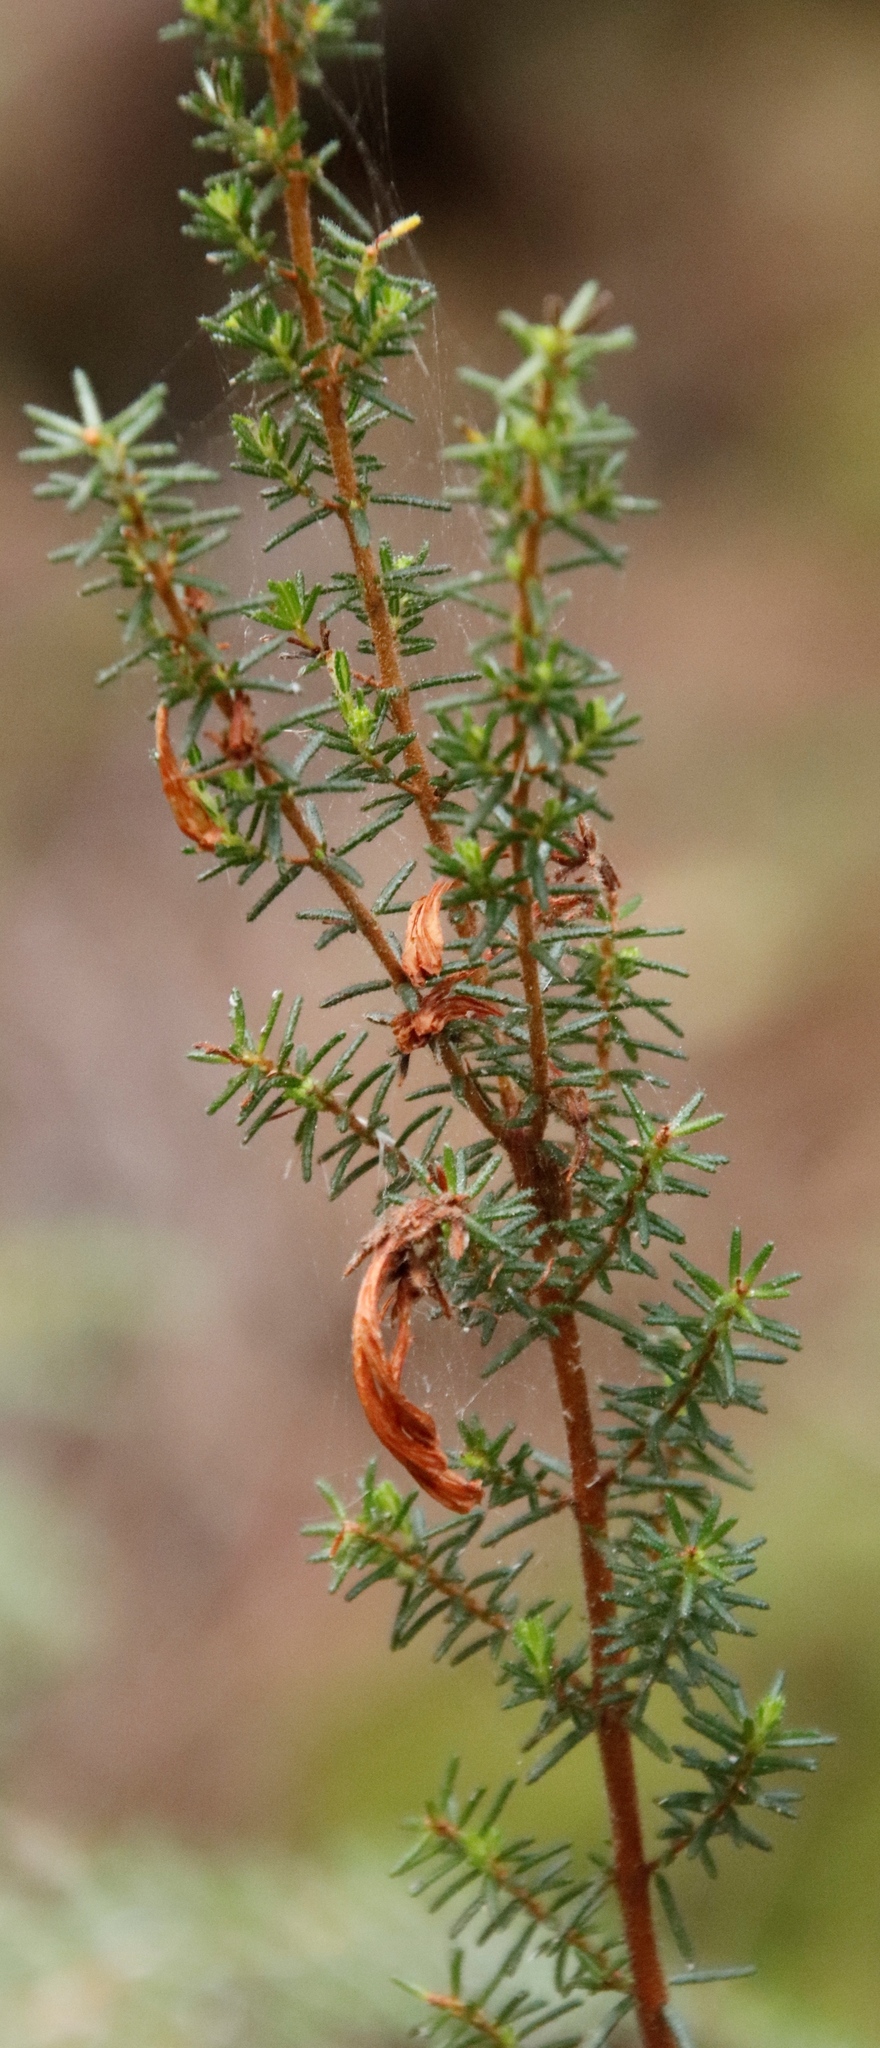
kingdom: Plantae
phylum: Tracheophyta
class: Magnoliopsida
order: Ericales
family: Ericaceae
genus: Erica
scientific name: Erica glandulosa
